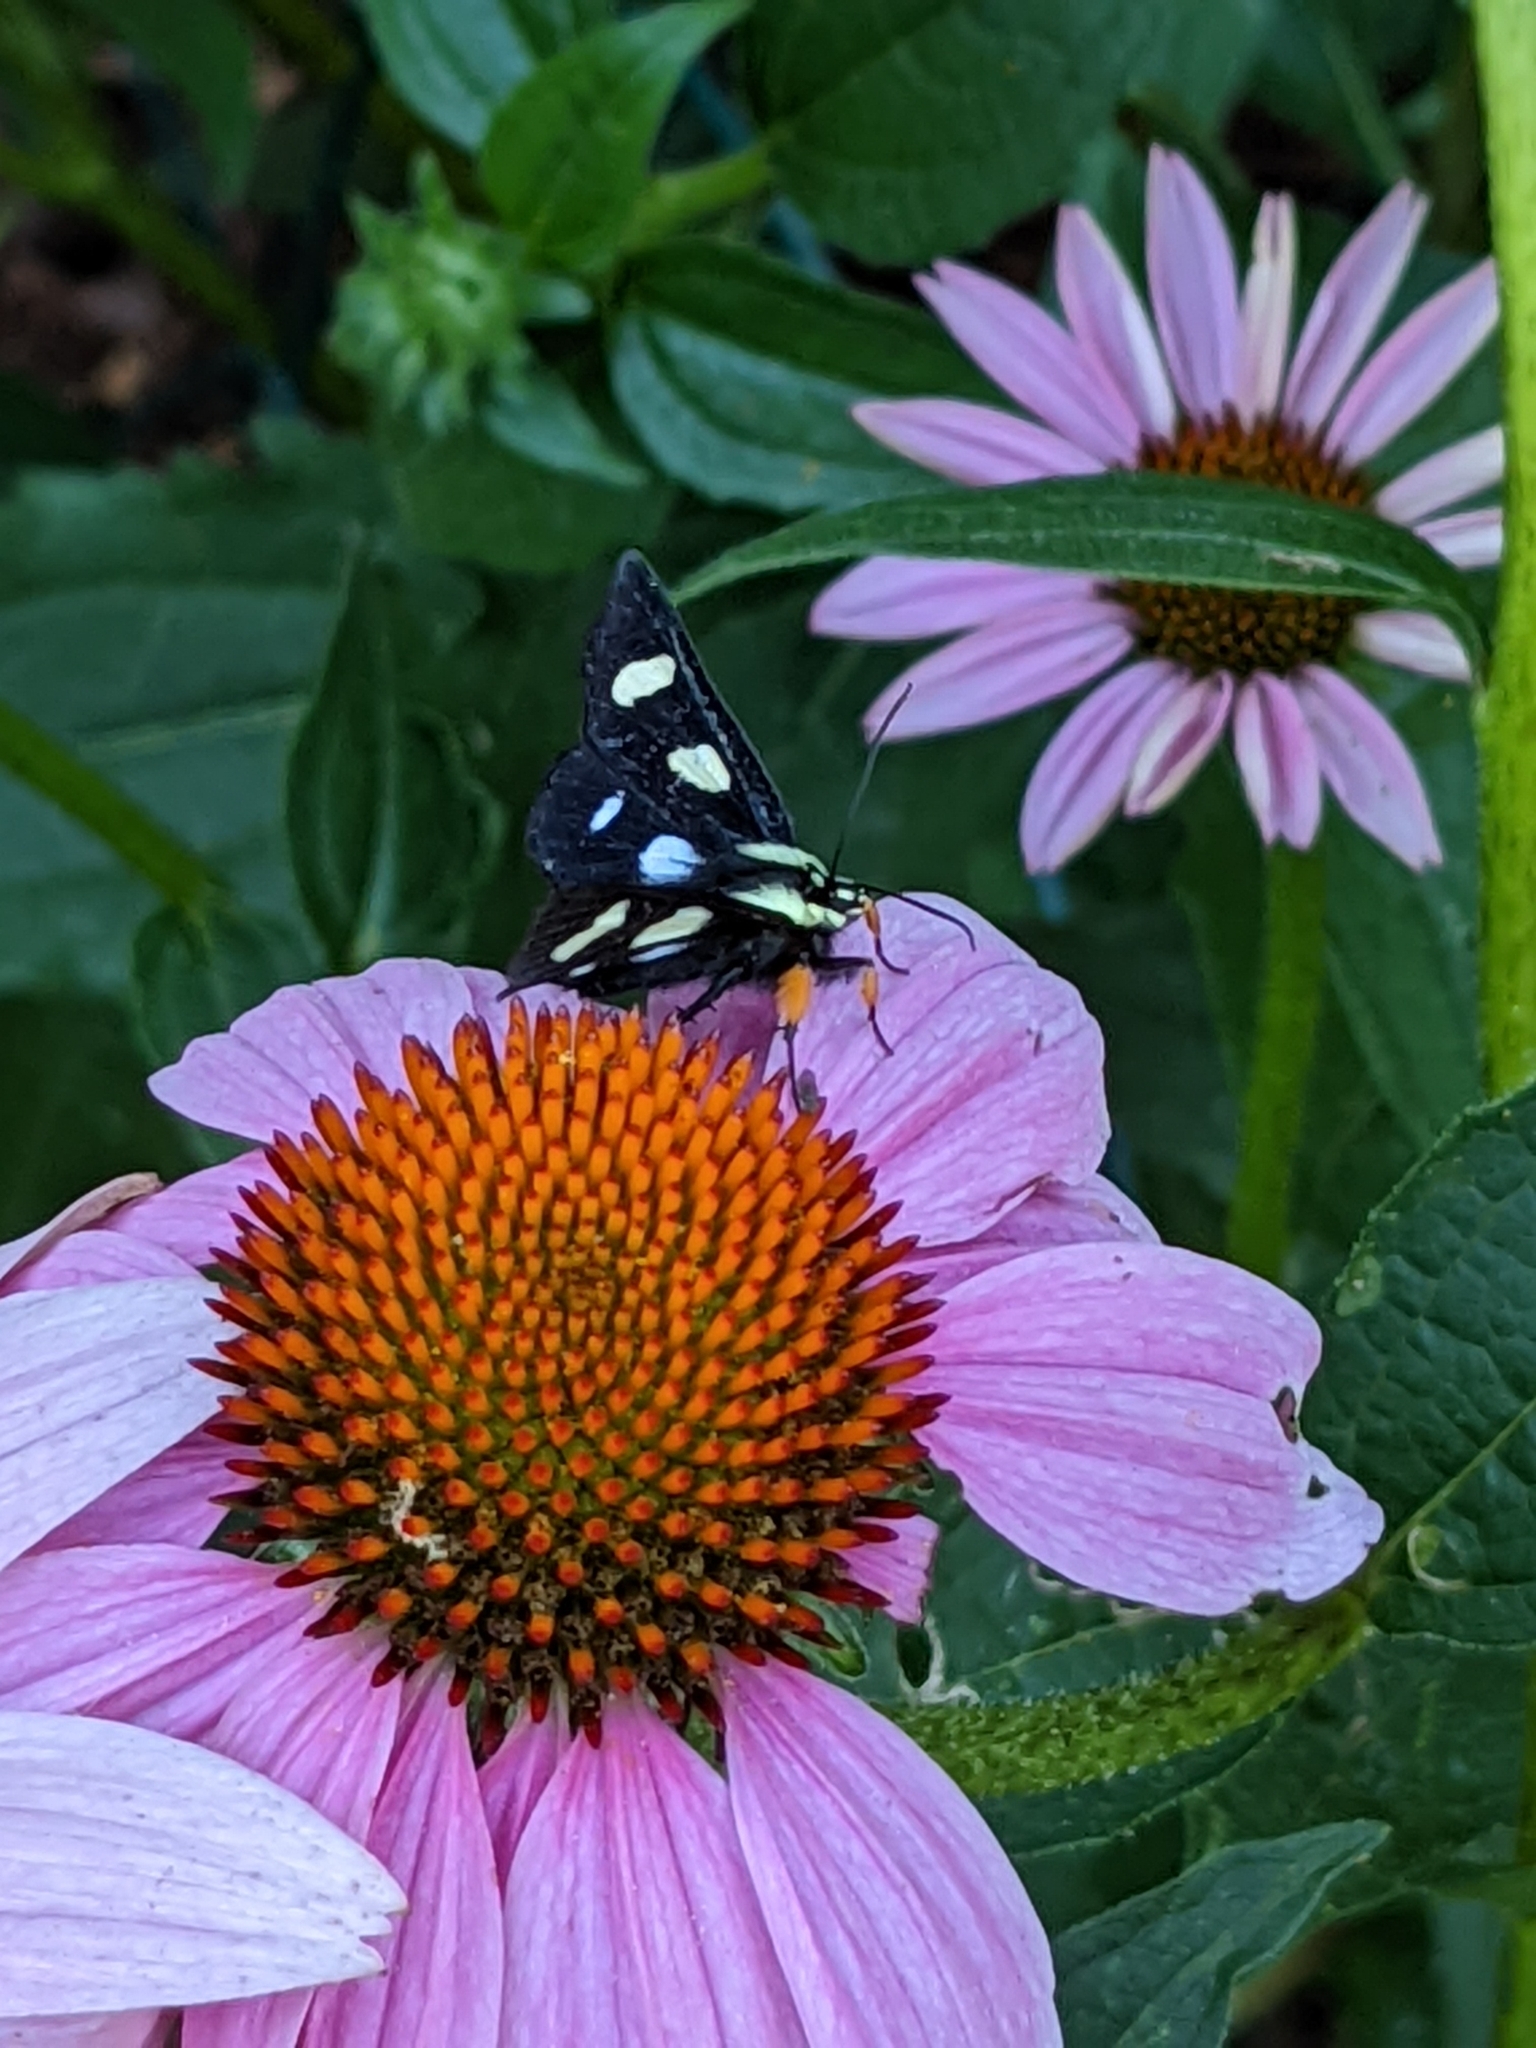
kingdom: Animalia
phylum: Arthropoda
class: Insecta
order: Lepidoptera
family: Noctuidae
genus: Alypia
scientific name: Alypia octomaculata
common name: Eight-spotted forester
